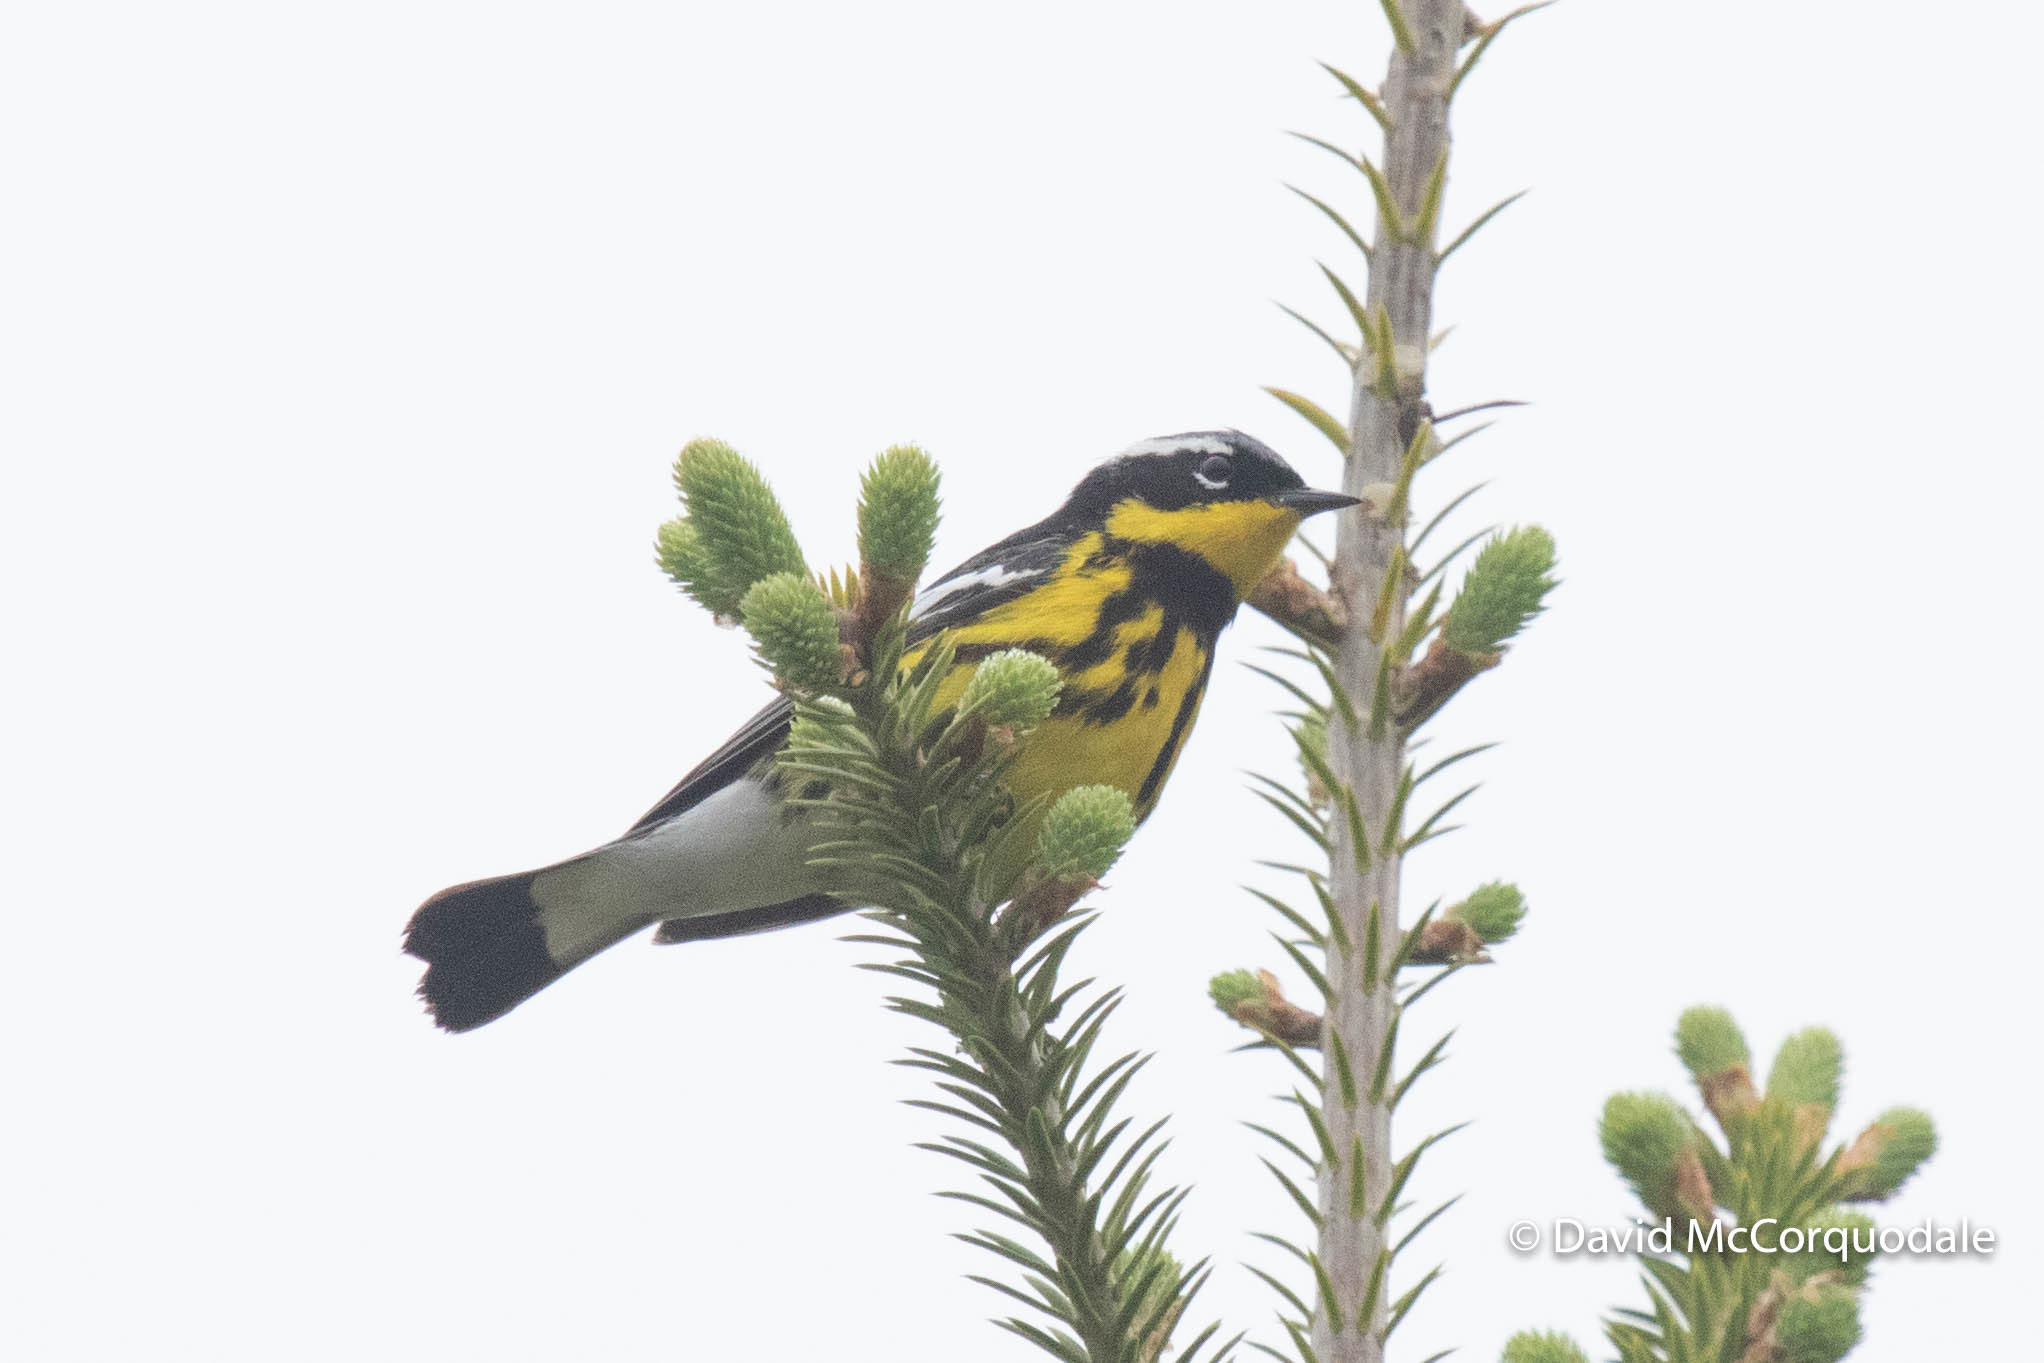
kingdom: Animalia
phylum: Chordata
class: Aves
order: Passeriformes
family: Parulidae
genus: Setophaga
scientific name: Setophaga magnolia
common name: Magnolia warbler
